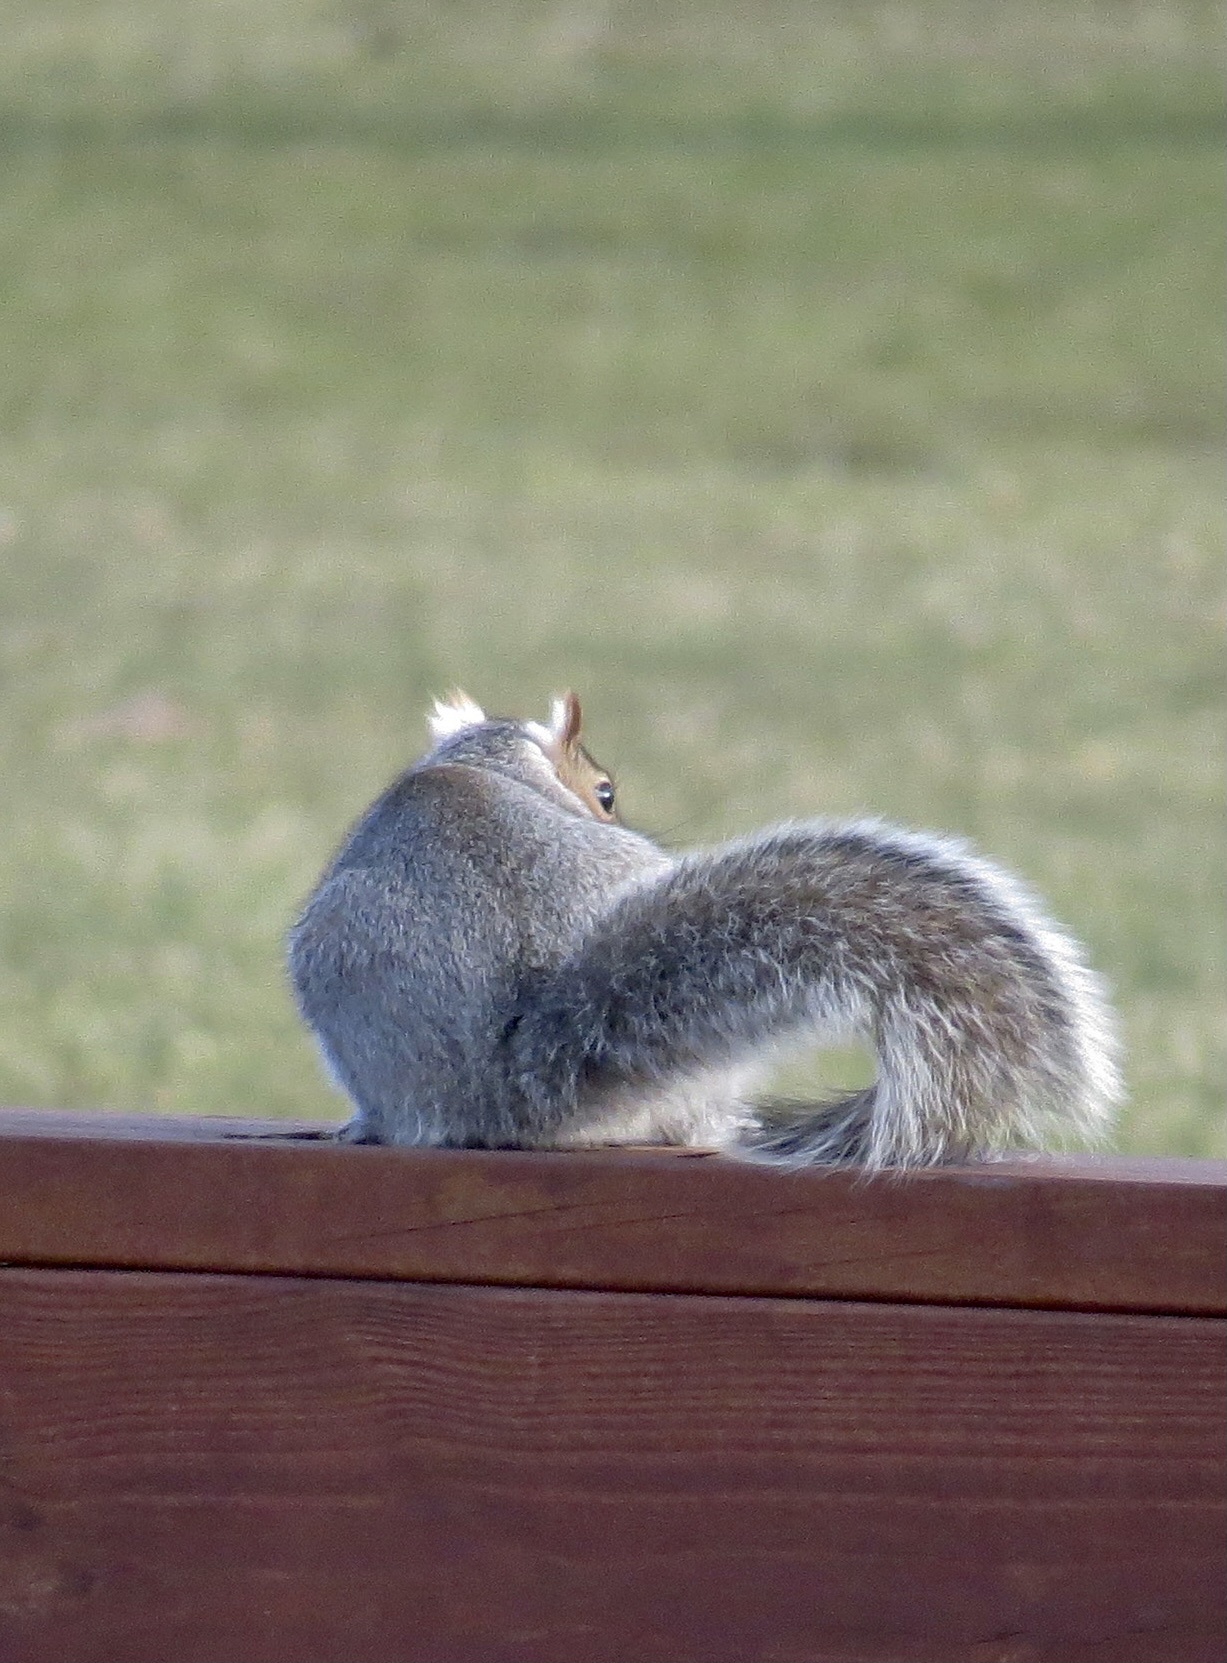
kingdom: Animalia
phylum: Chordata
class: Mammalia
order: Rodentia
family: Sciuridae
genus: Sciurus
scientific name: Sciurus carolinensis
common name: Eastern gray squirrel
